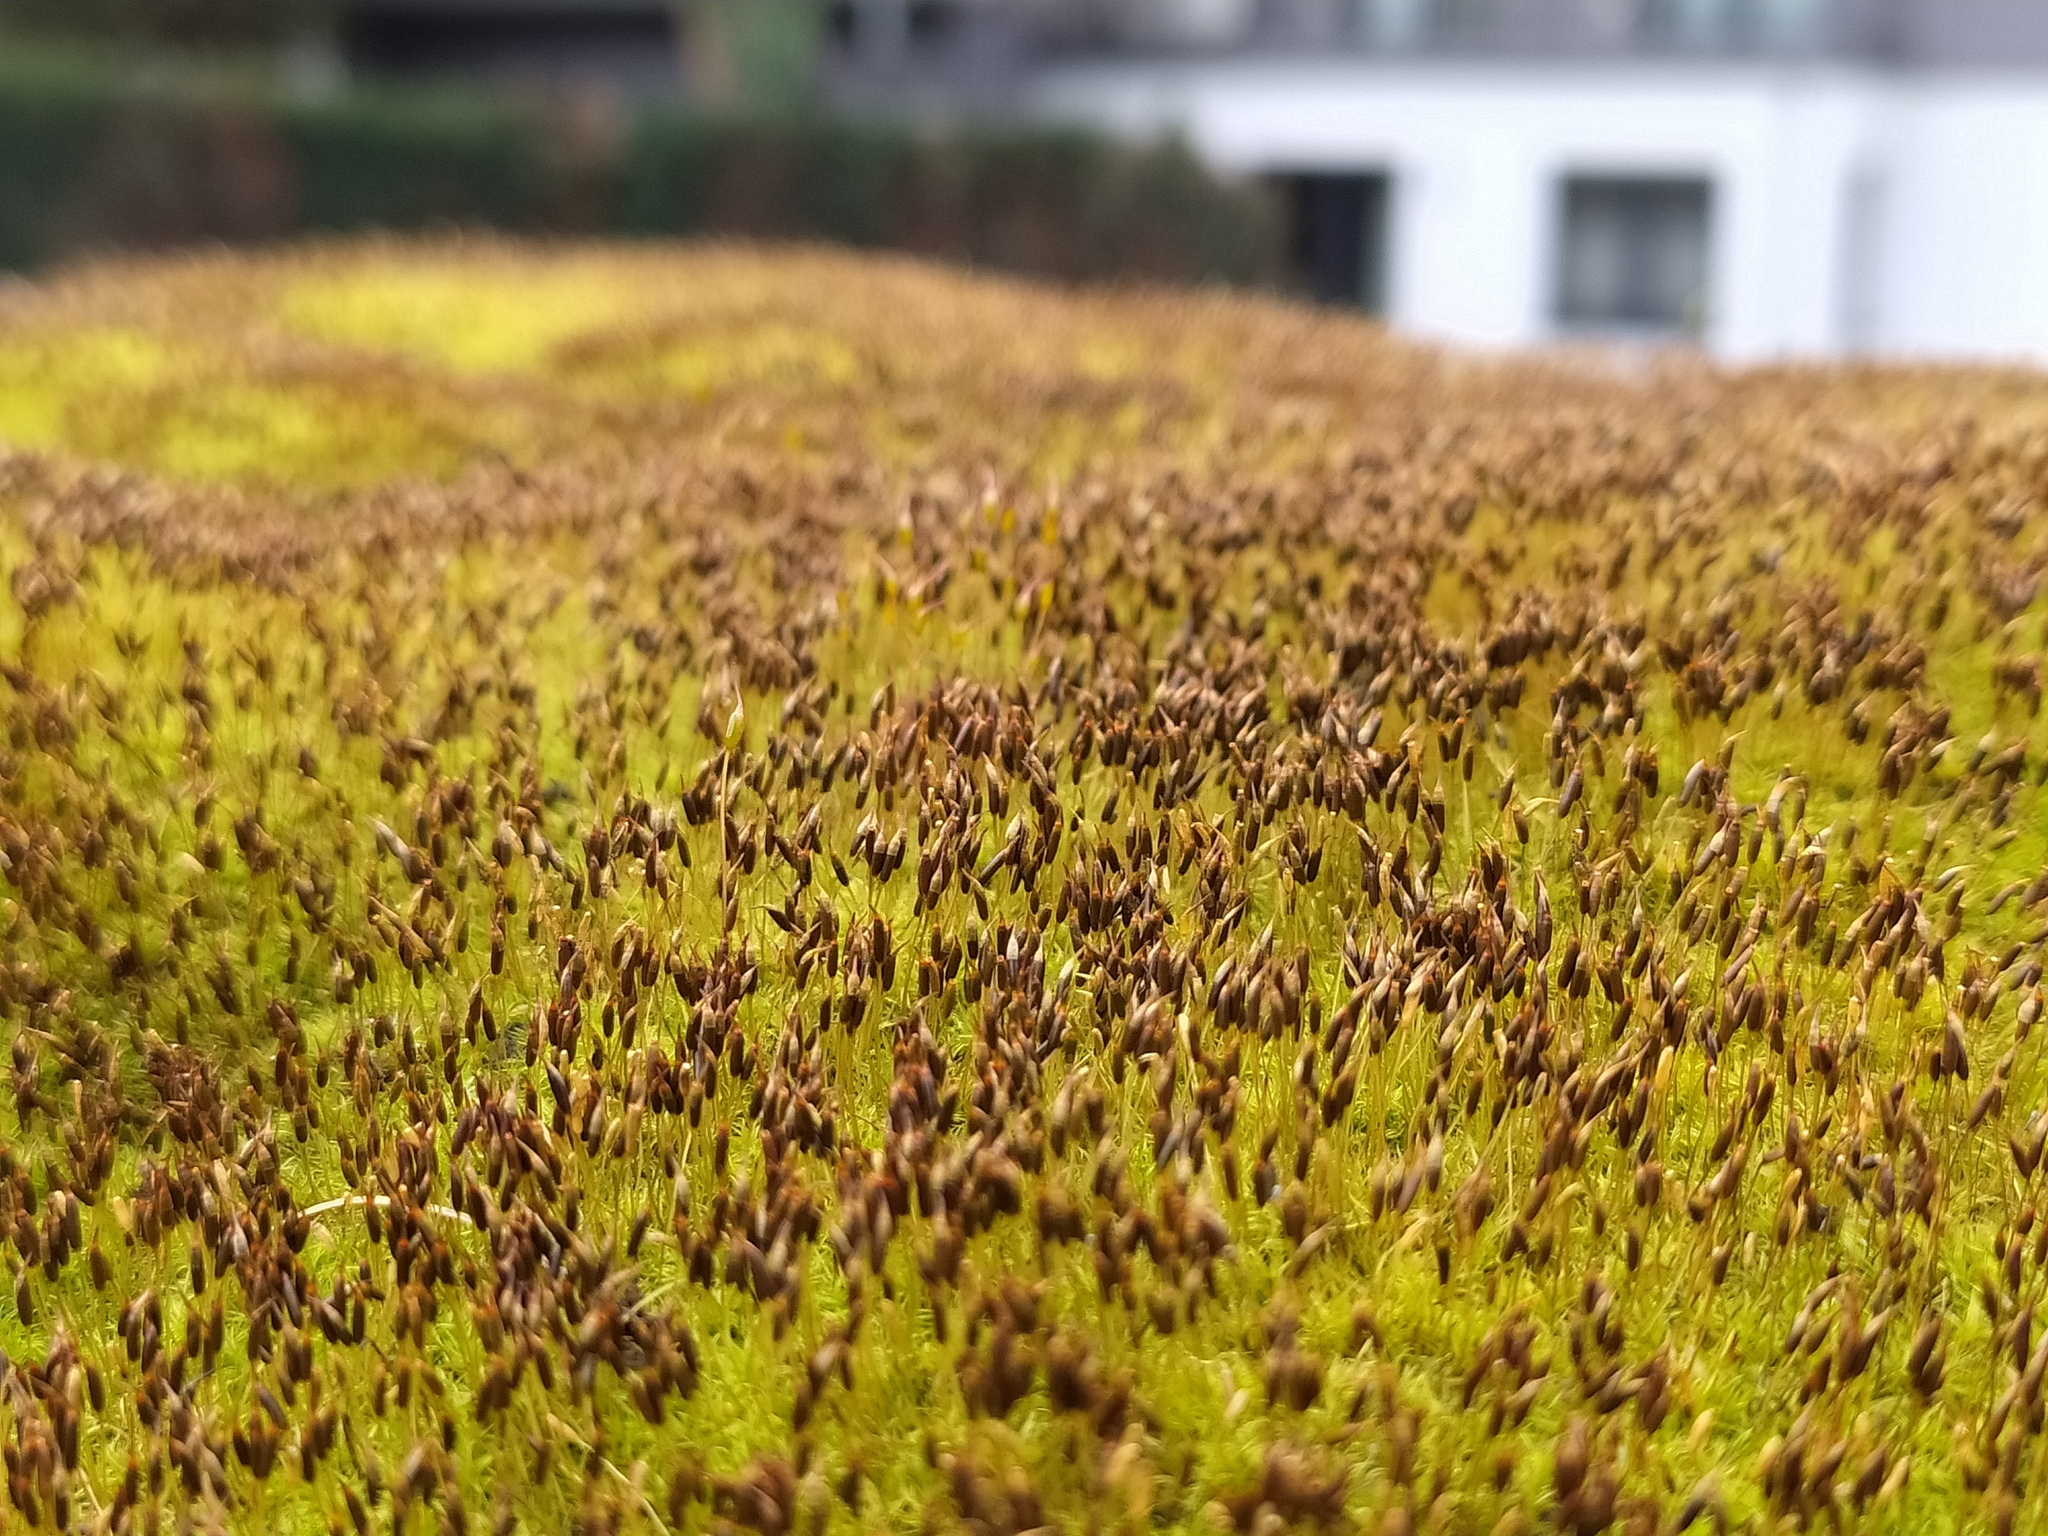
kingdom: Plantae
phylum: Bryophyta
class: Bryopsida
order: Dicranales
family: Rhabdoweisiaceae
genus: Dicranoweisia
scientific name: Dicranoweisia cirrata
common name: Common pincushion
